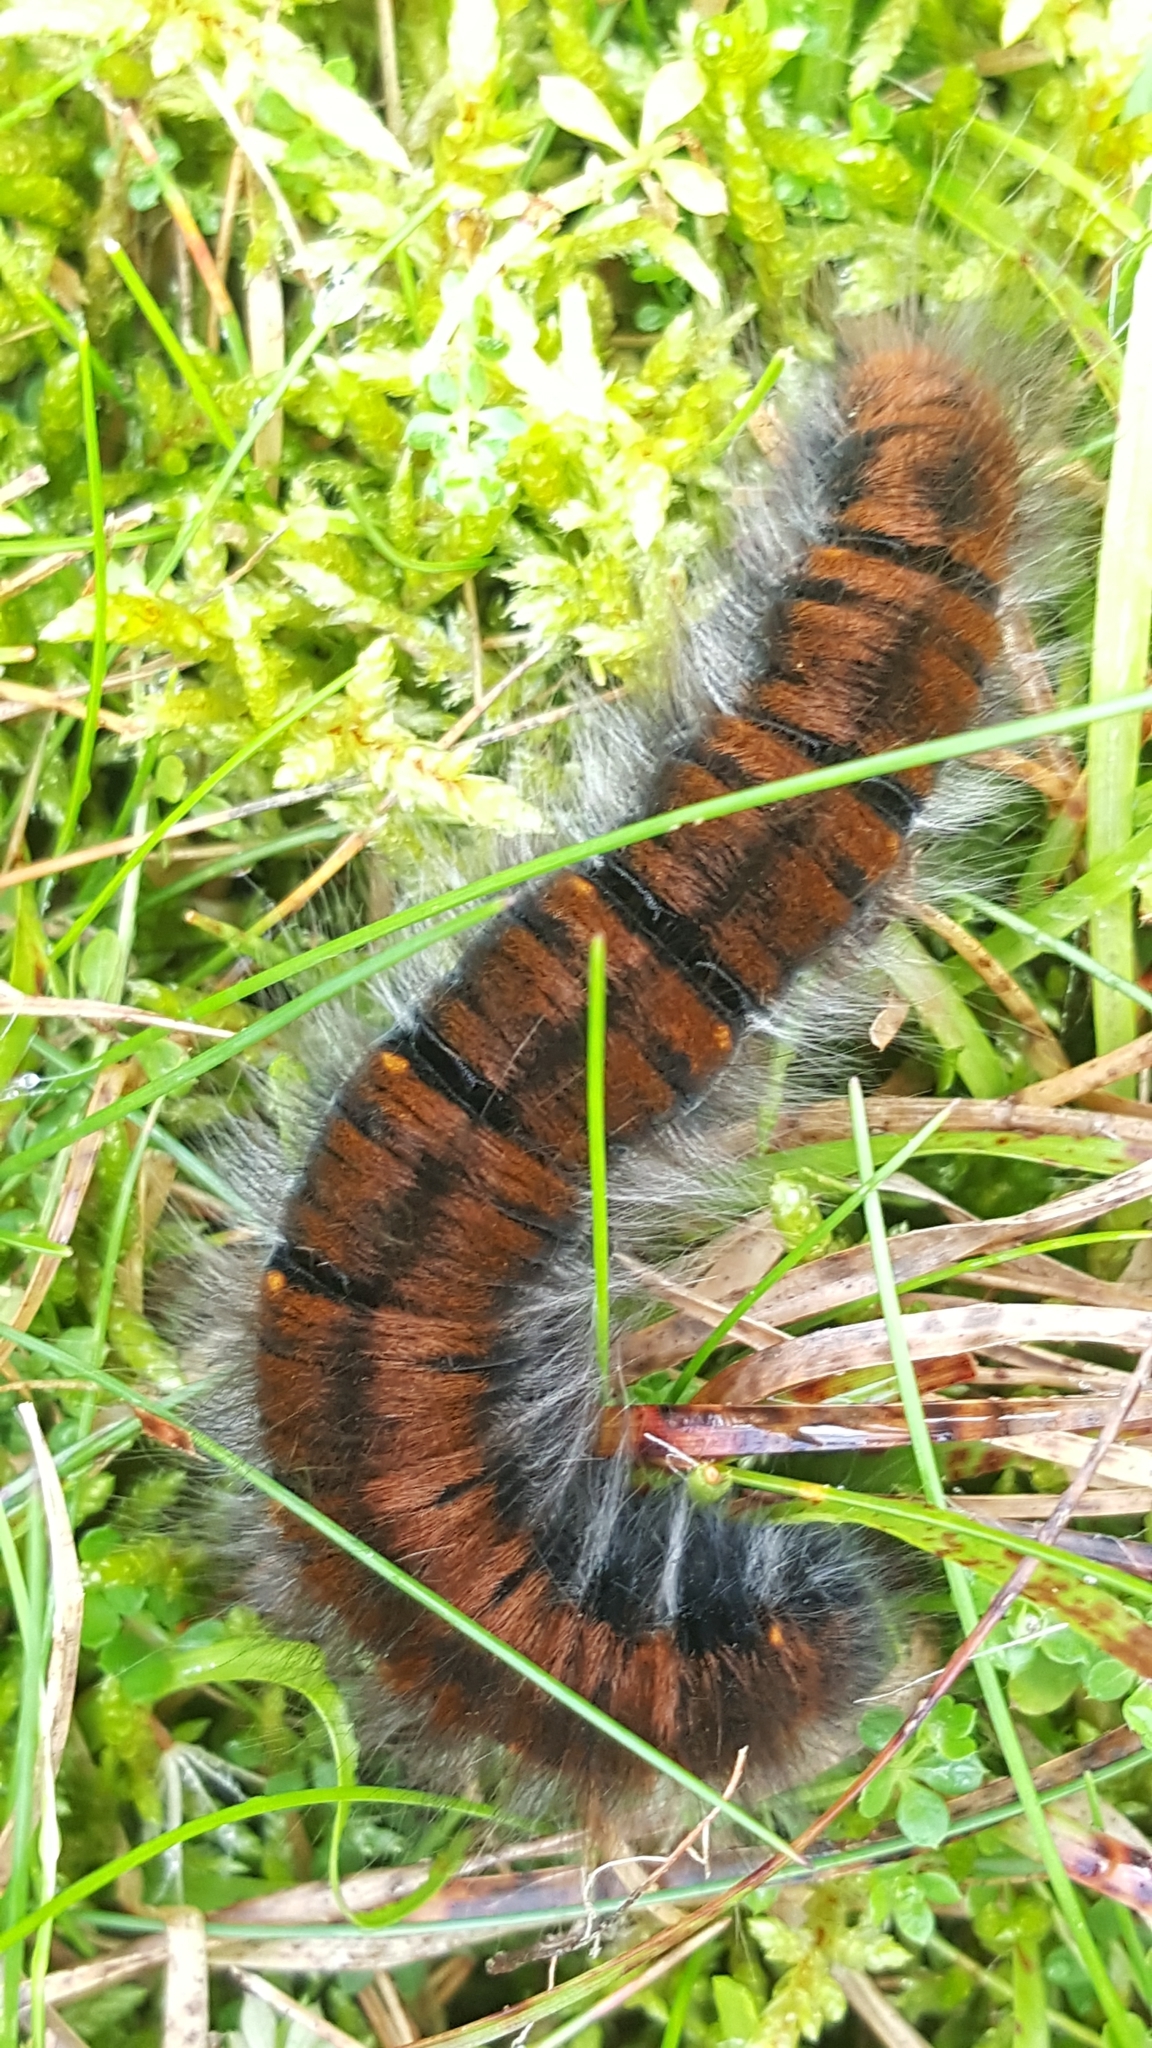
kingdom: Animalia
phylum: Arthropoda
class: Insecta
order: Lepidoptera
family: Lasiocampidae
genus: Macrothylacia
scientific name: Macrothylacia rubi
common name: Fox moth
